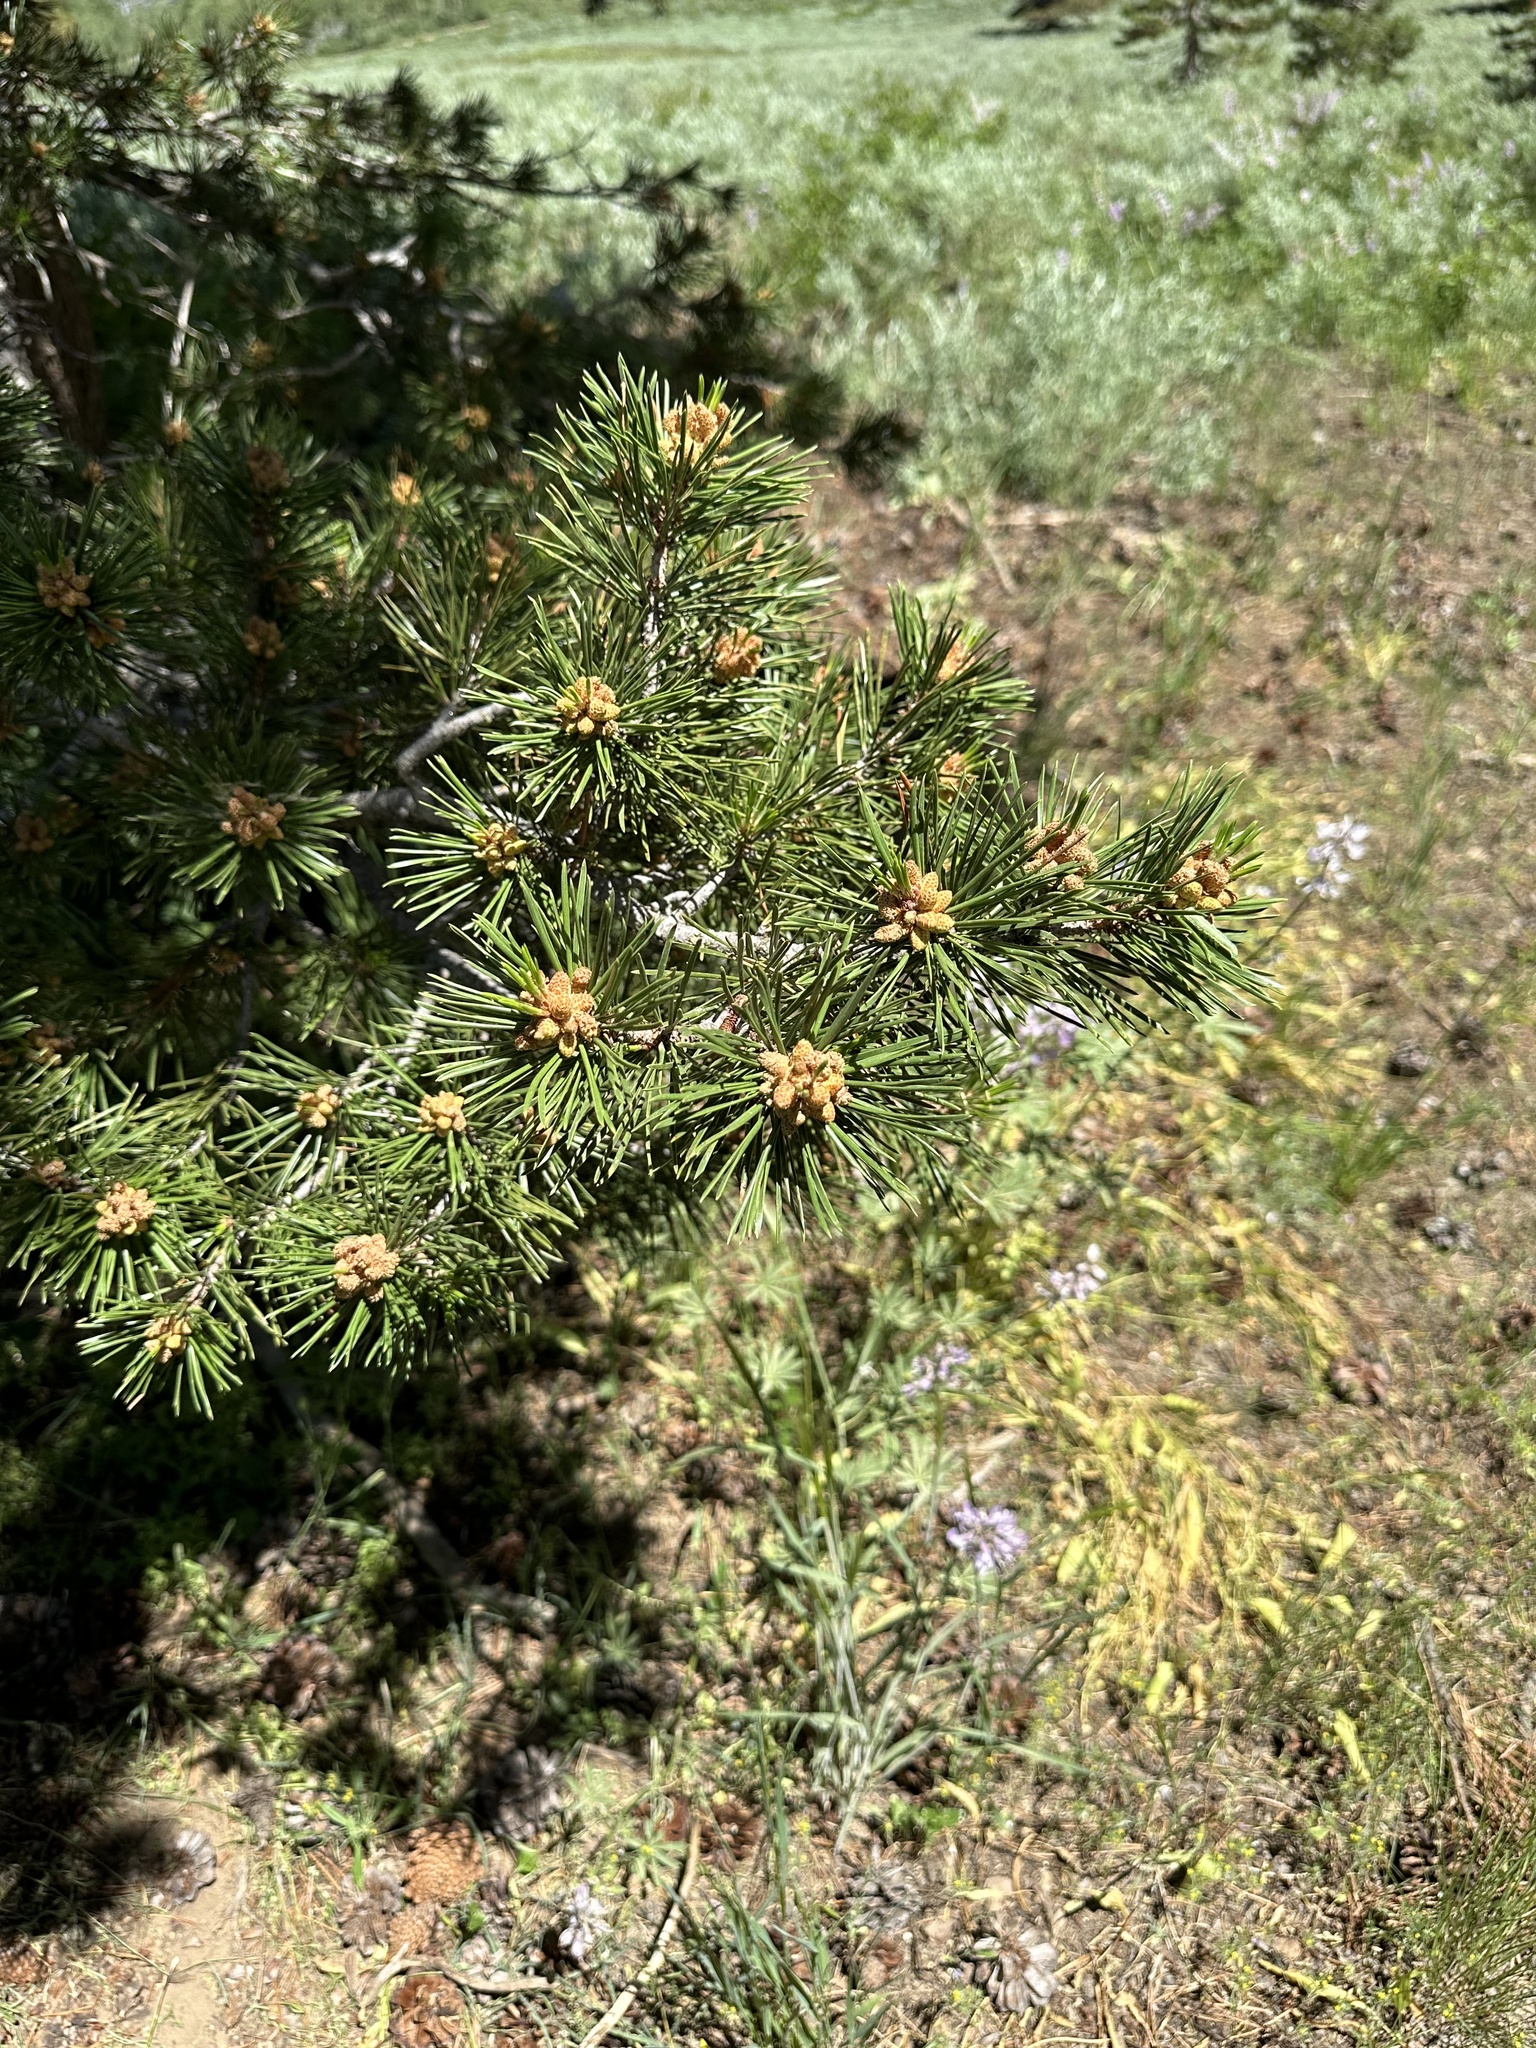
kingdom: Plantae
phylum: Tracheophyta
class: Pinopsida
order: Pinales
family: Pinaceae
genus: Pinus
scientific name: Pinus contorta
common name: Lodgepole pine
